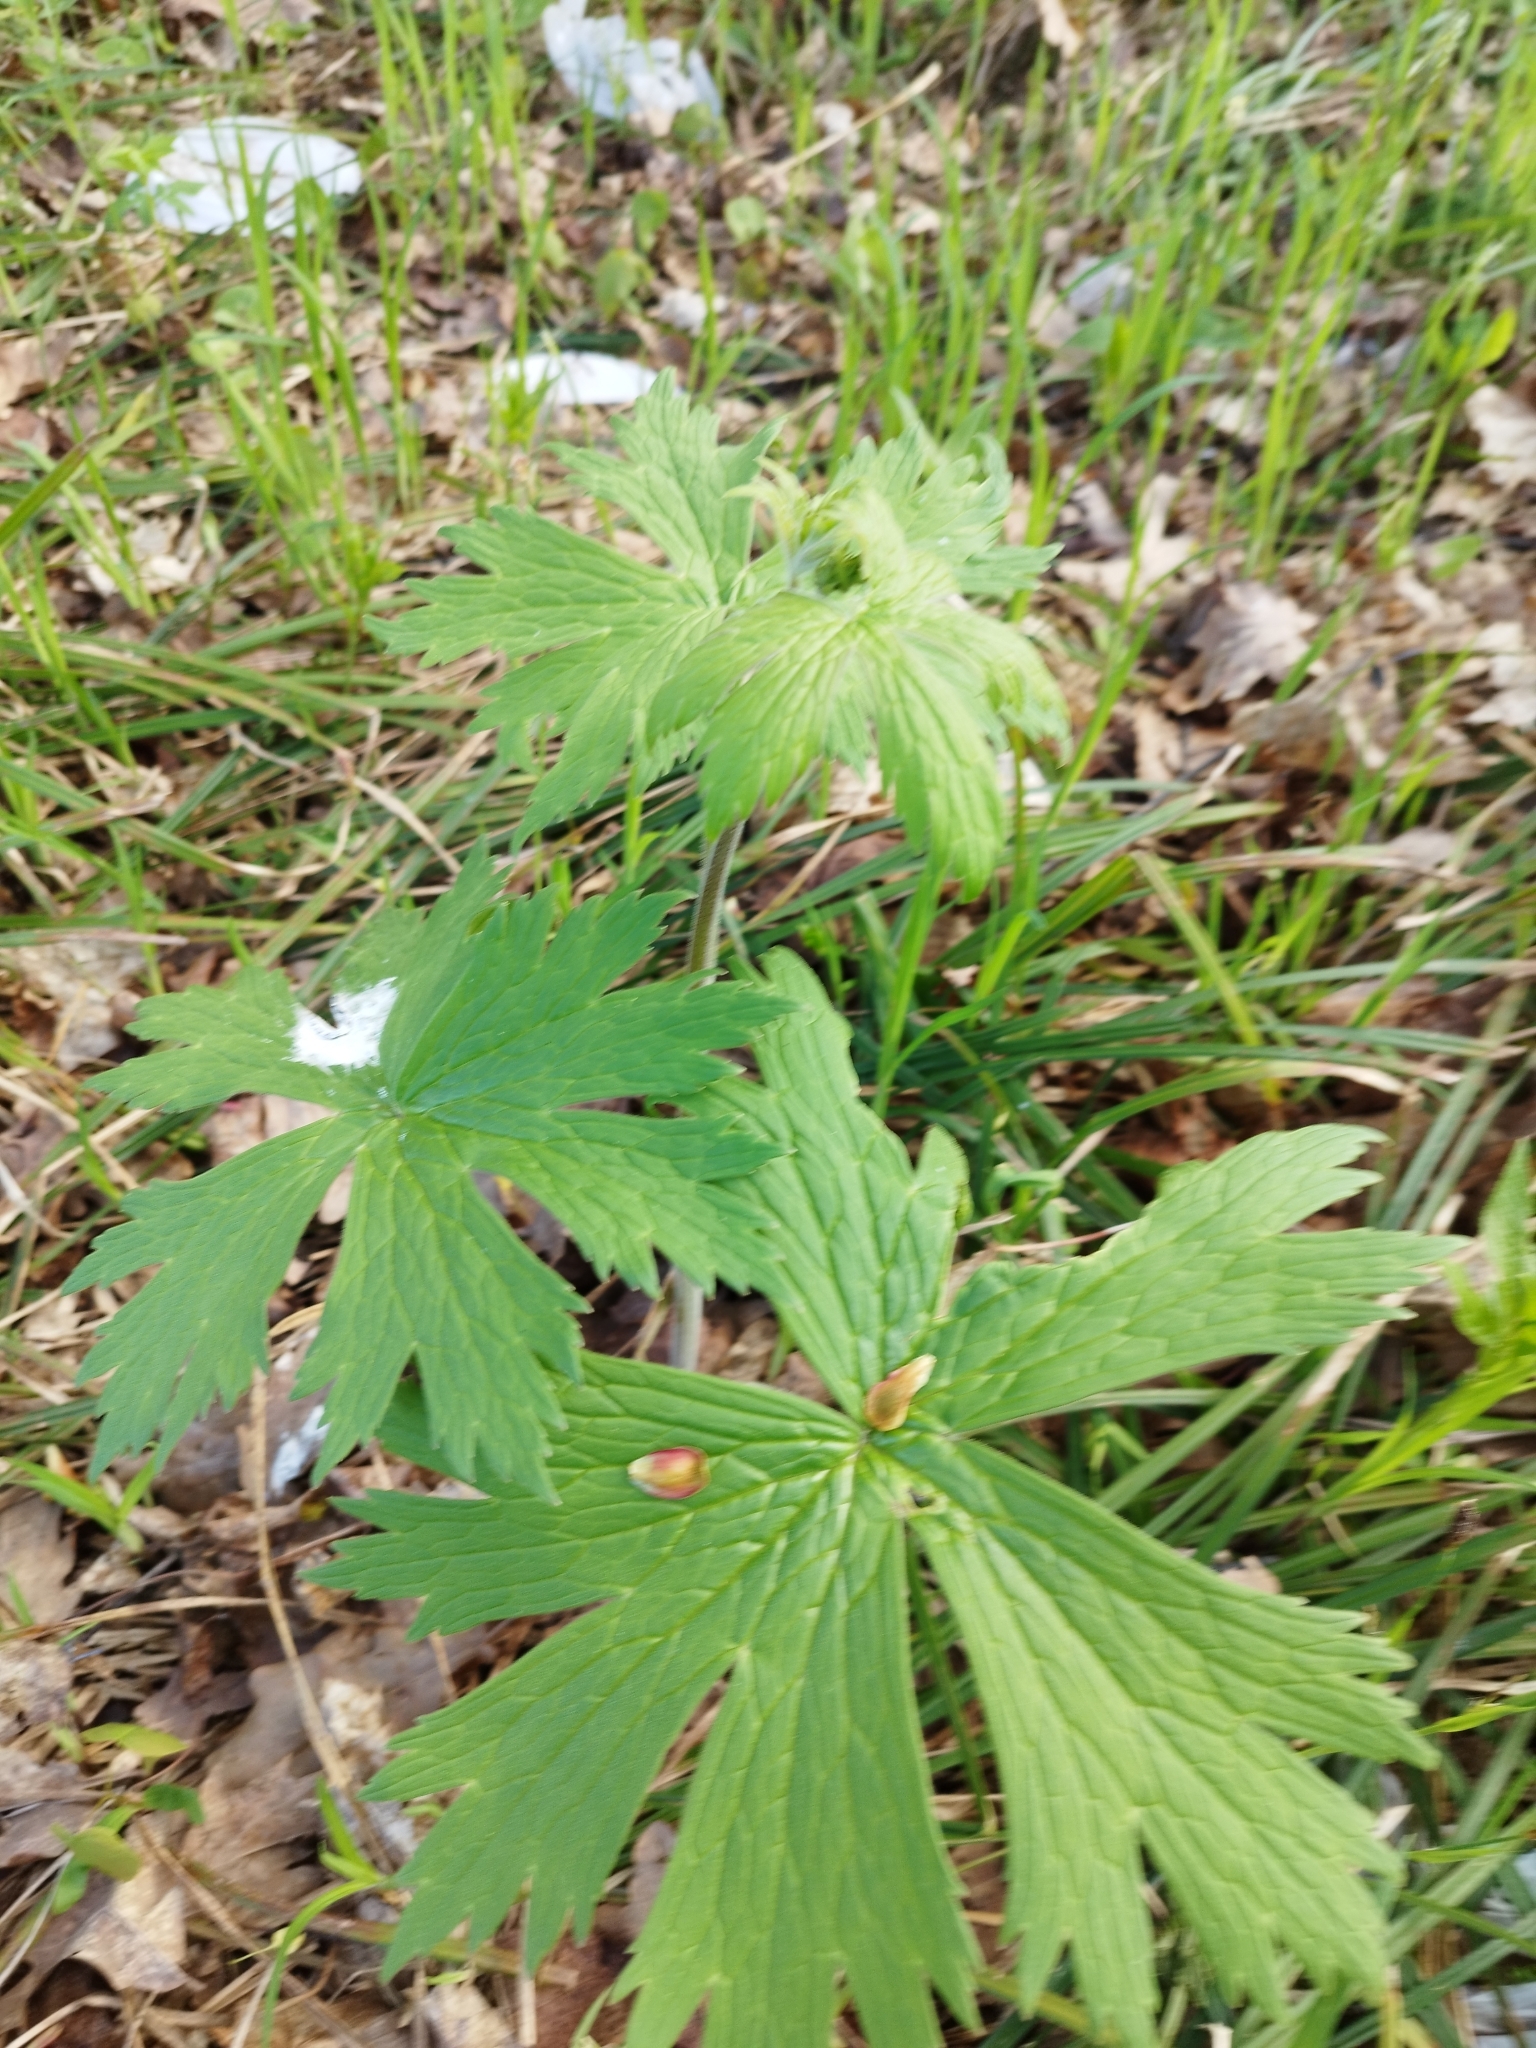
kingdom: Plantae
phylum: Tracheophyta
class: Magnoliopsida
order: Ranunculales
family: Ranunculaceae
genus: Aconitum
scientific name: Aconitum septentrionale
